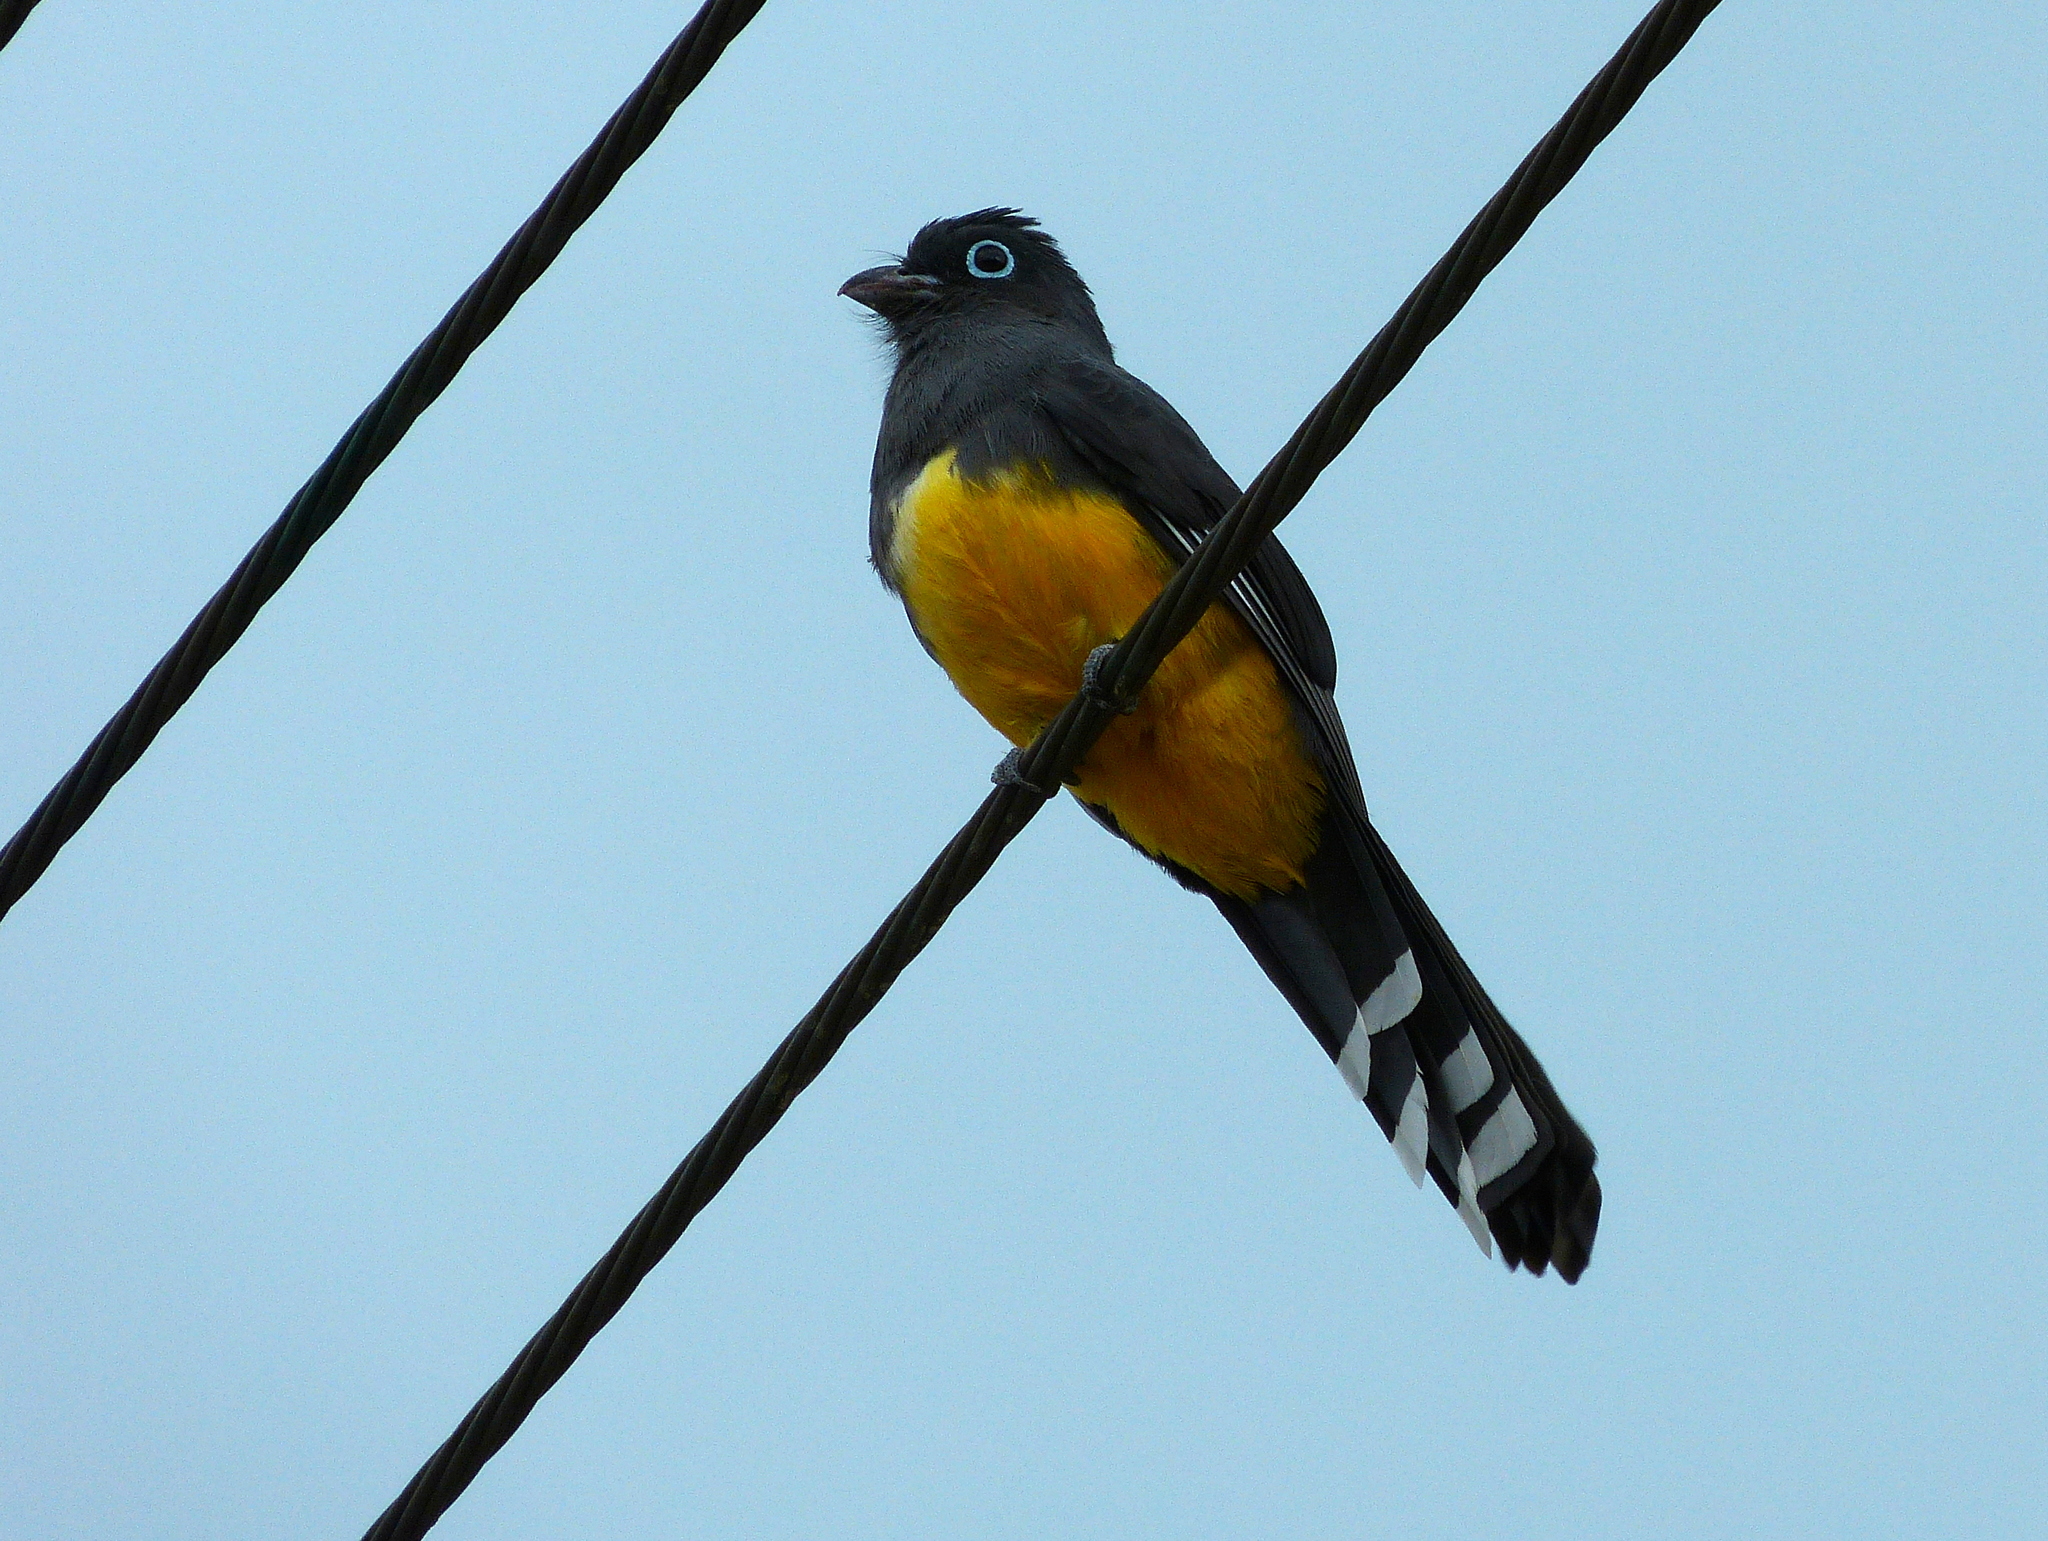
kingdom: Animalia
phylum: Chordata
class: Aves
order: Trogoniformes
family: Trogonidae
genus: Trogon
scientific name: Trogon melanocephalus
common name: Black-headed trogon
